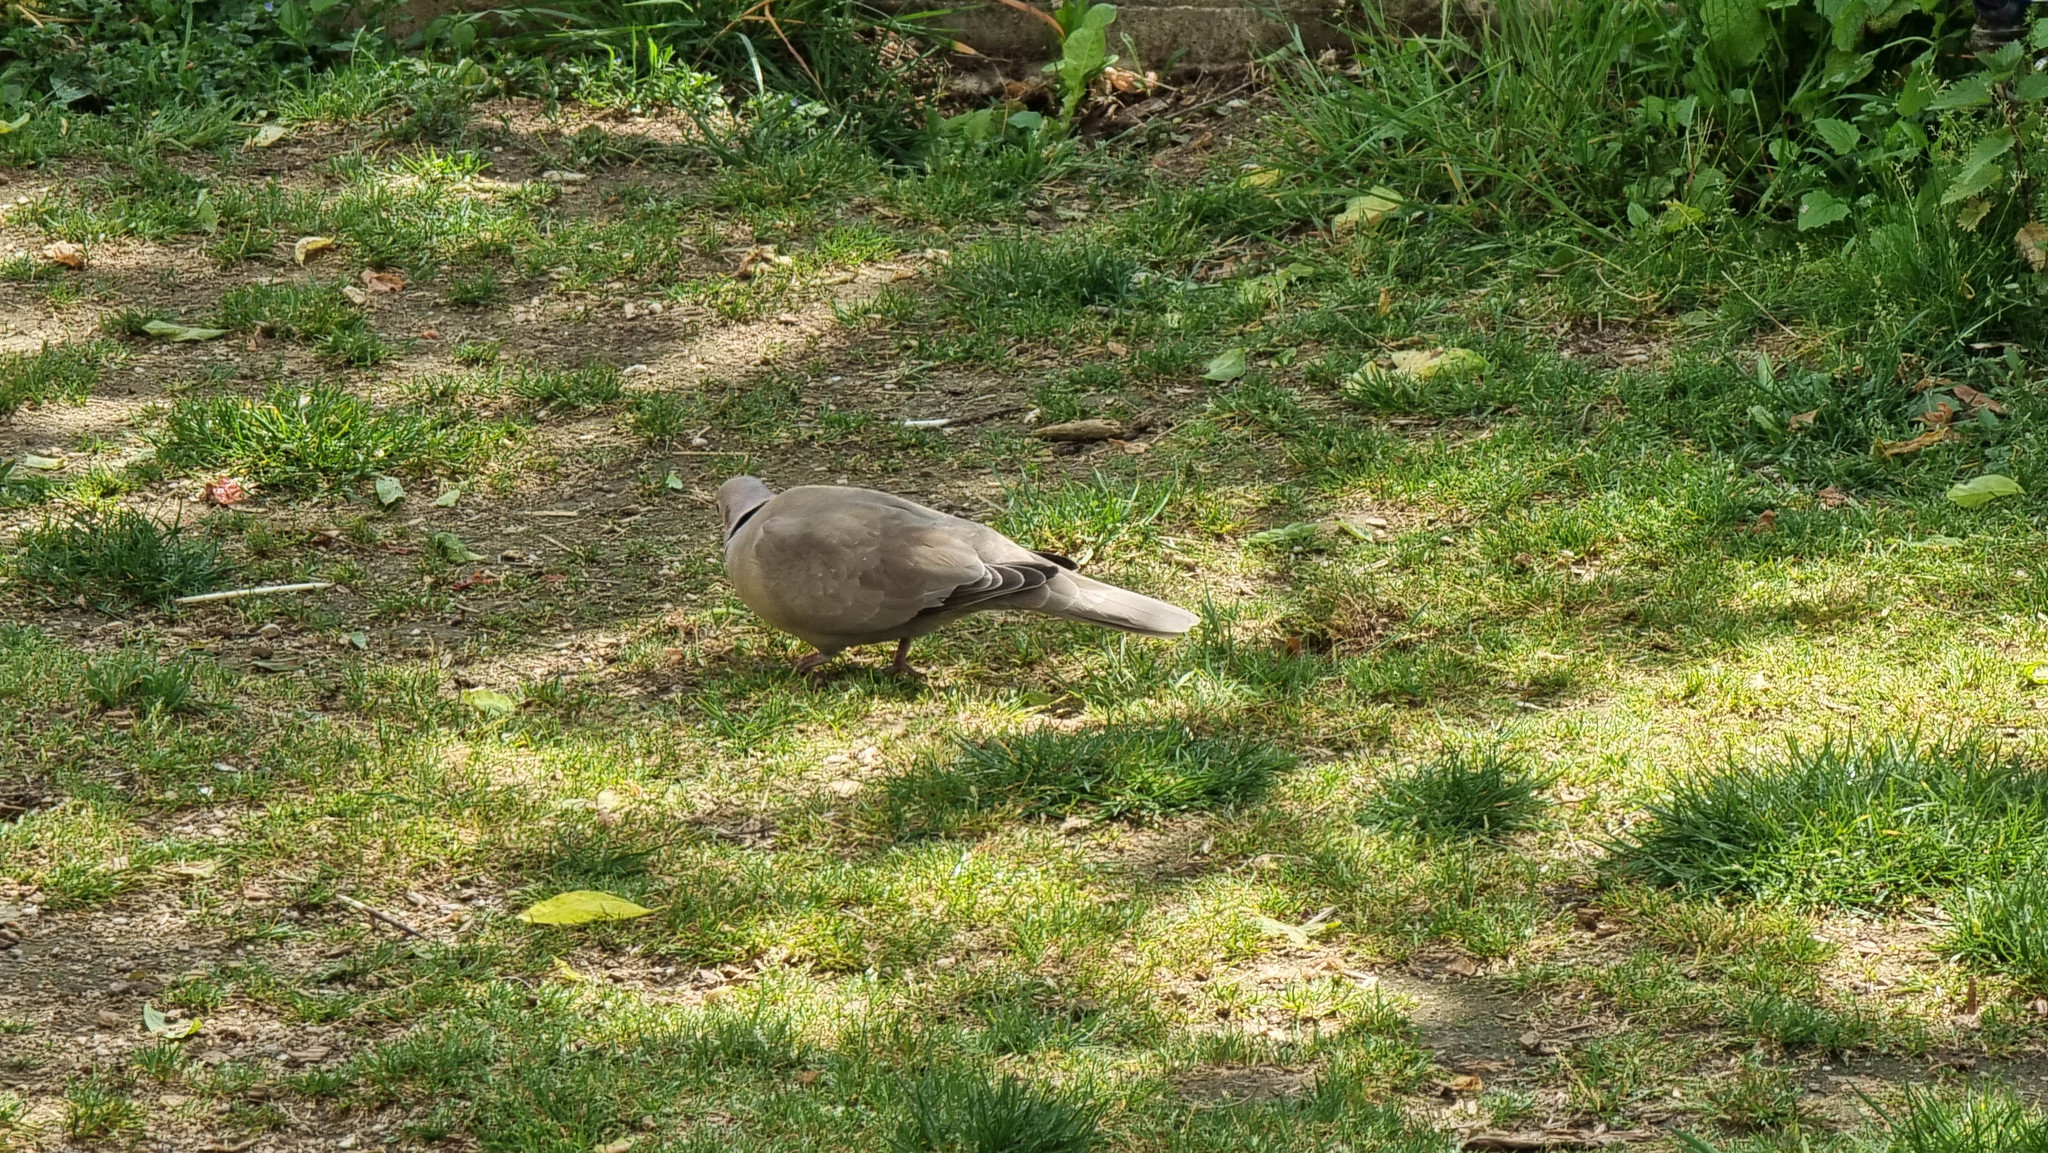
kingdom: Animalia
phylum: Chordata
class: Aves
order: Columbiformes
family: Columbidae
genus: Streptopelia
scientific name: Streptopelia decaocto
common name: Eurasian collared dove
